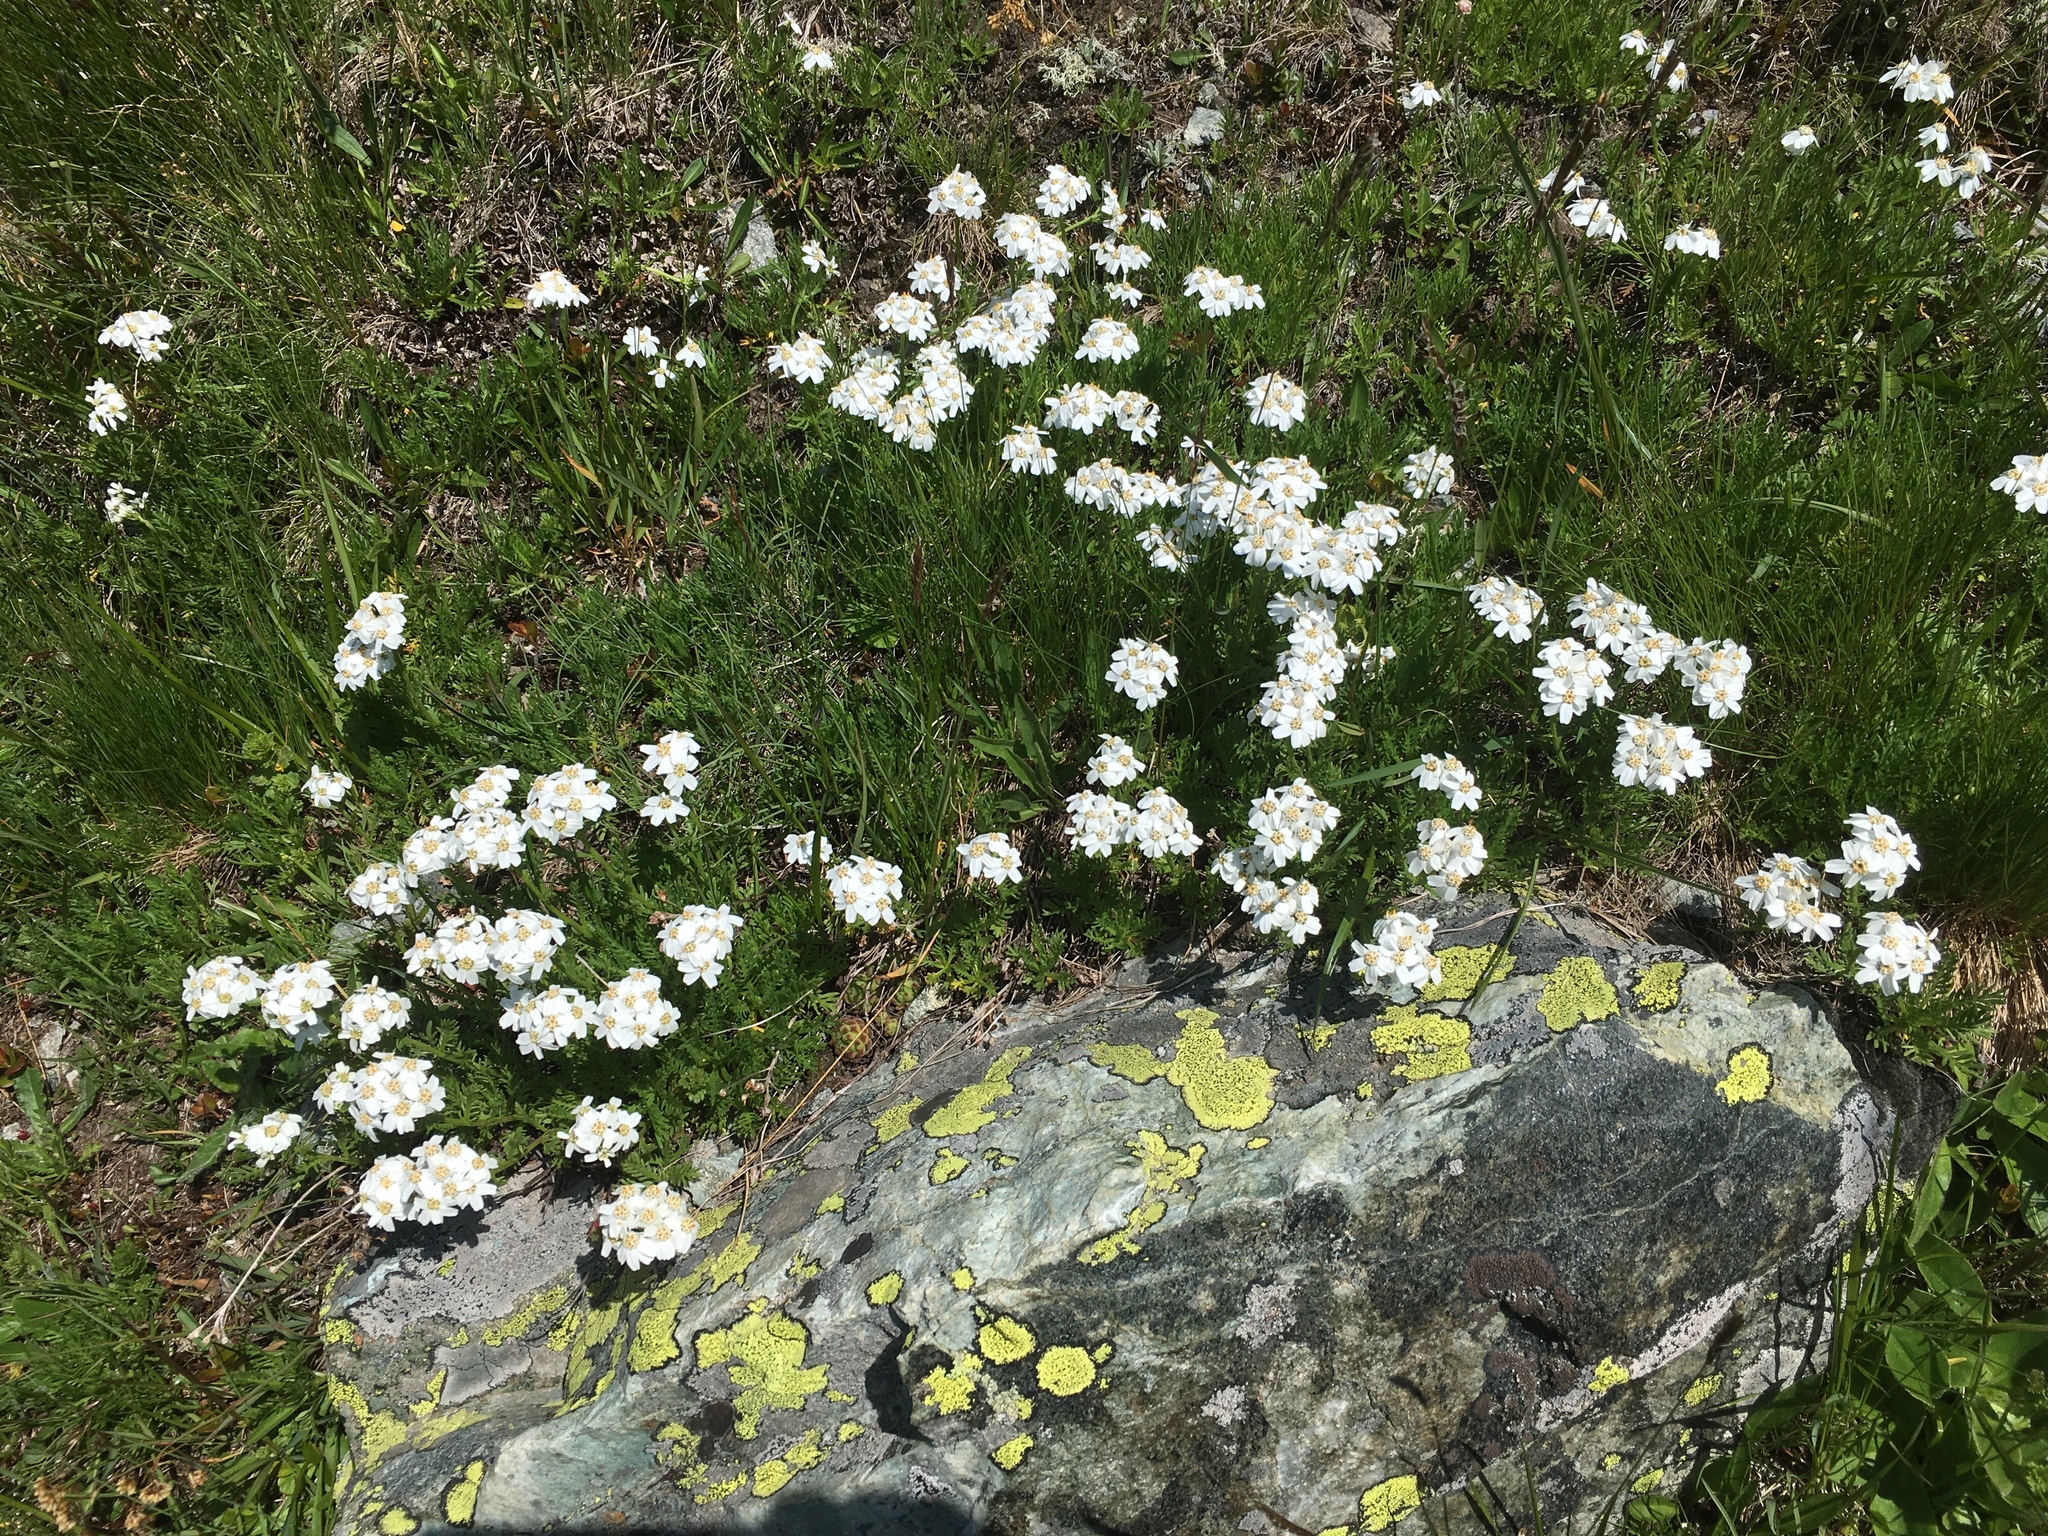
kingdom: Plantae
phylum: Tracheophyta
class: Magnoliopsida
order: Asterales
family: Asteraceae
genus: Achillea
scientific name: Achillea erba-rotta
